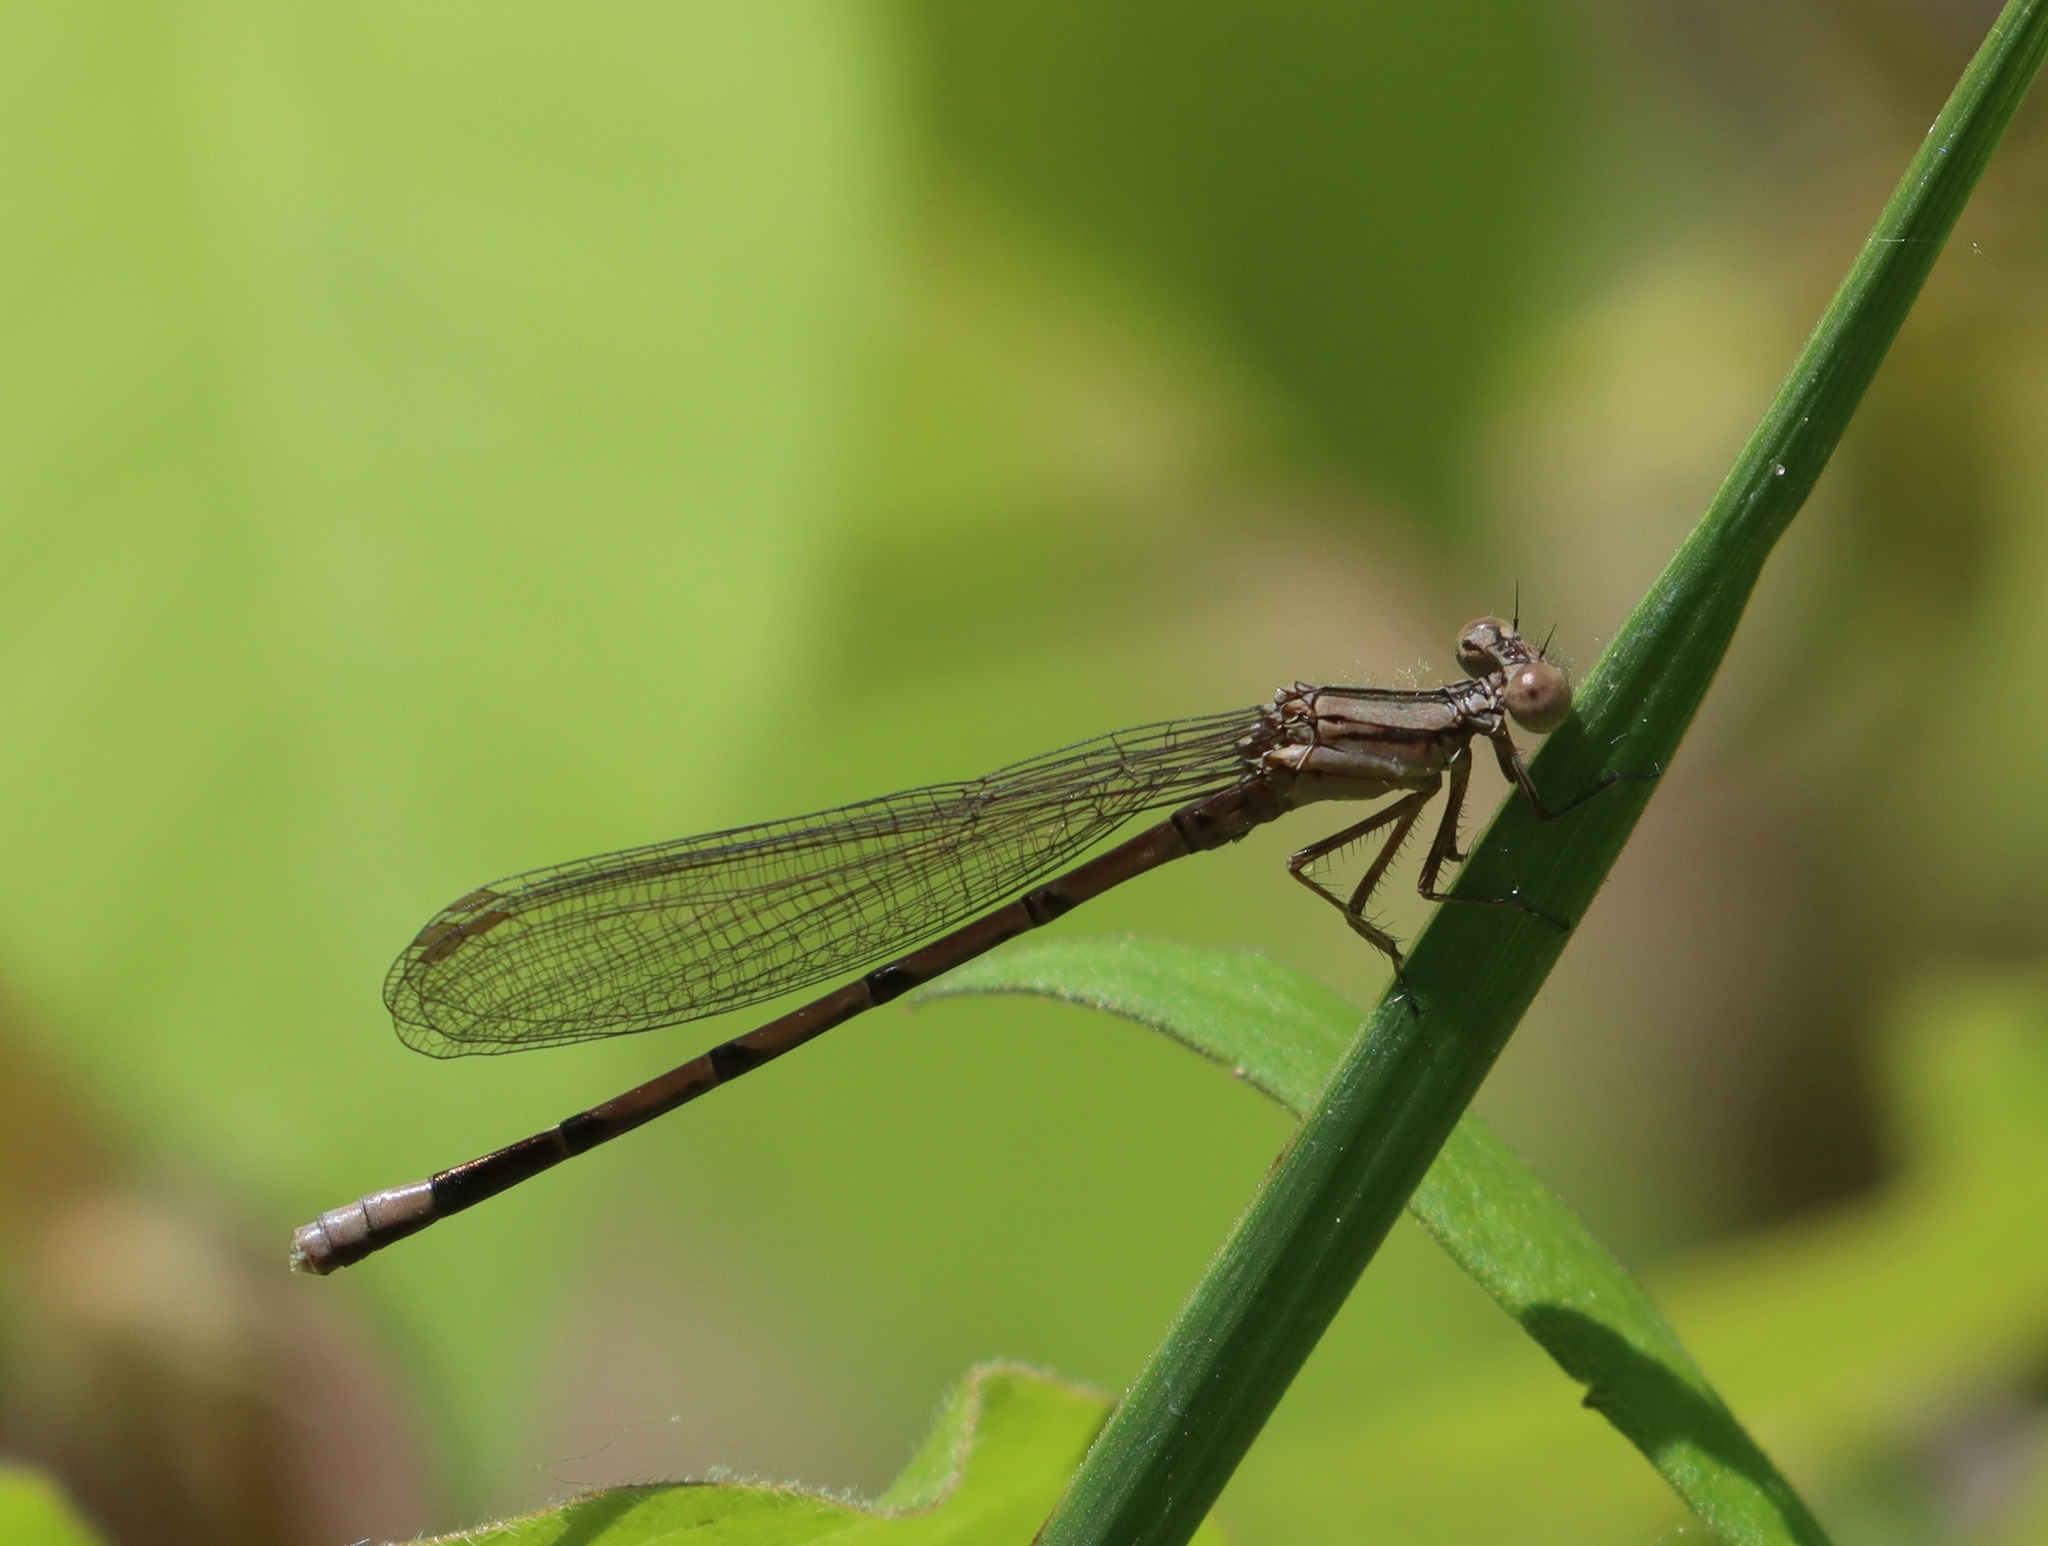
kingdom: Animalia
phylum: Arthropoda
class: Insecta
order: Odonata
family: Coenagrionidae
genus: Argia
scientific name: Argia fumipennis
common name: Variable dancer
